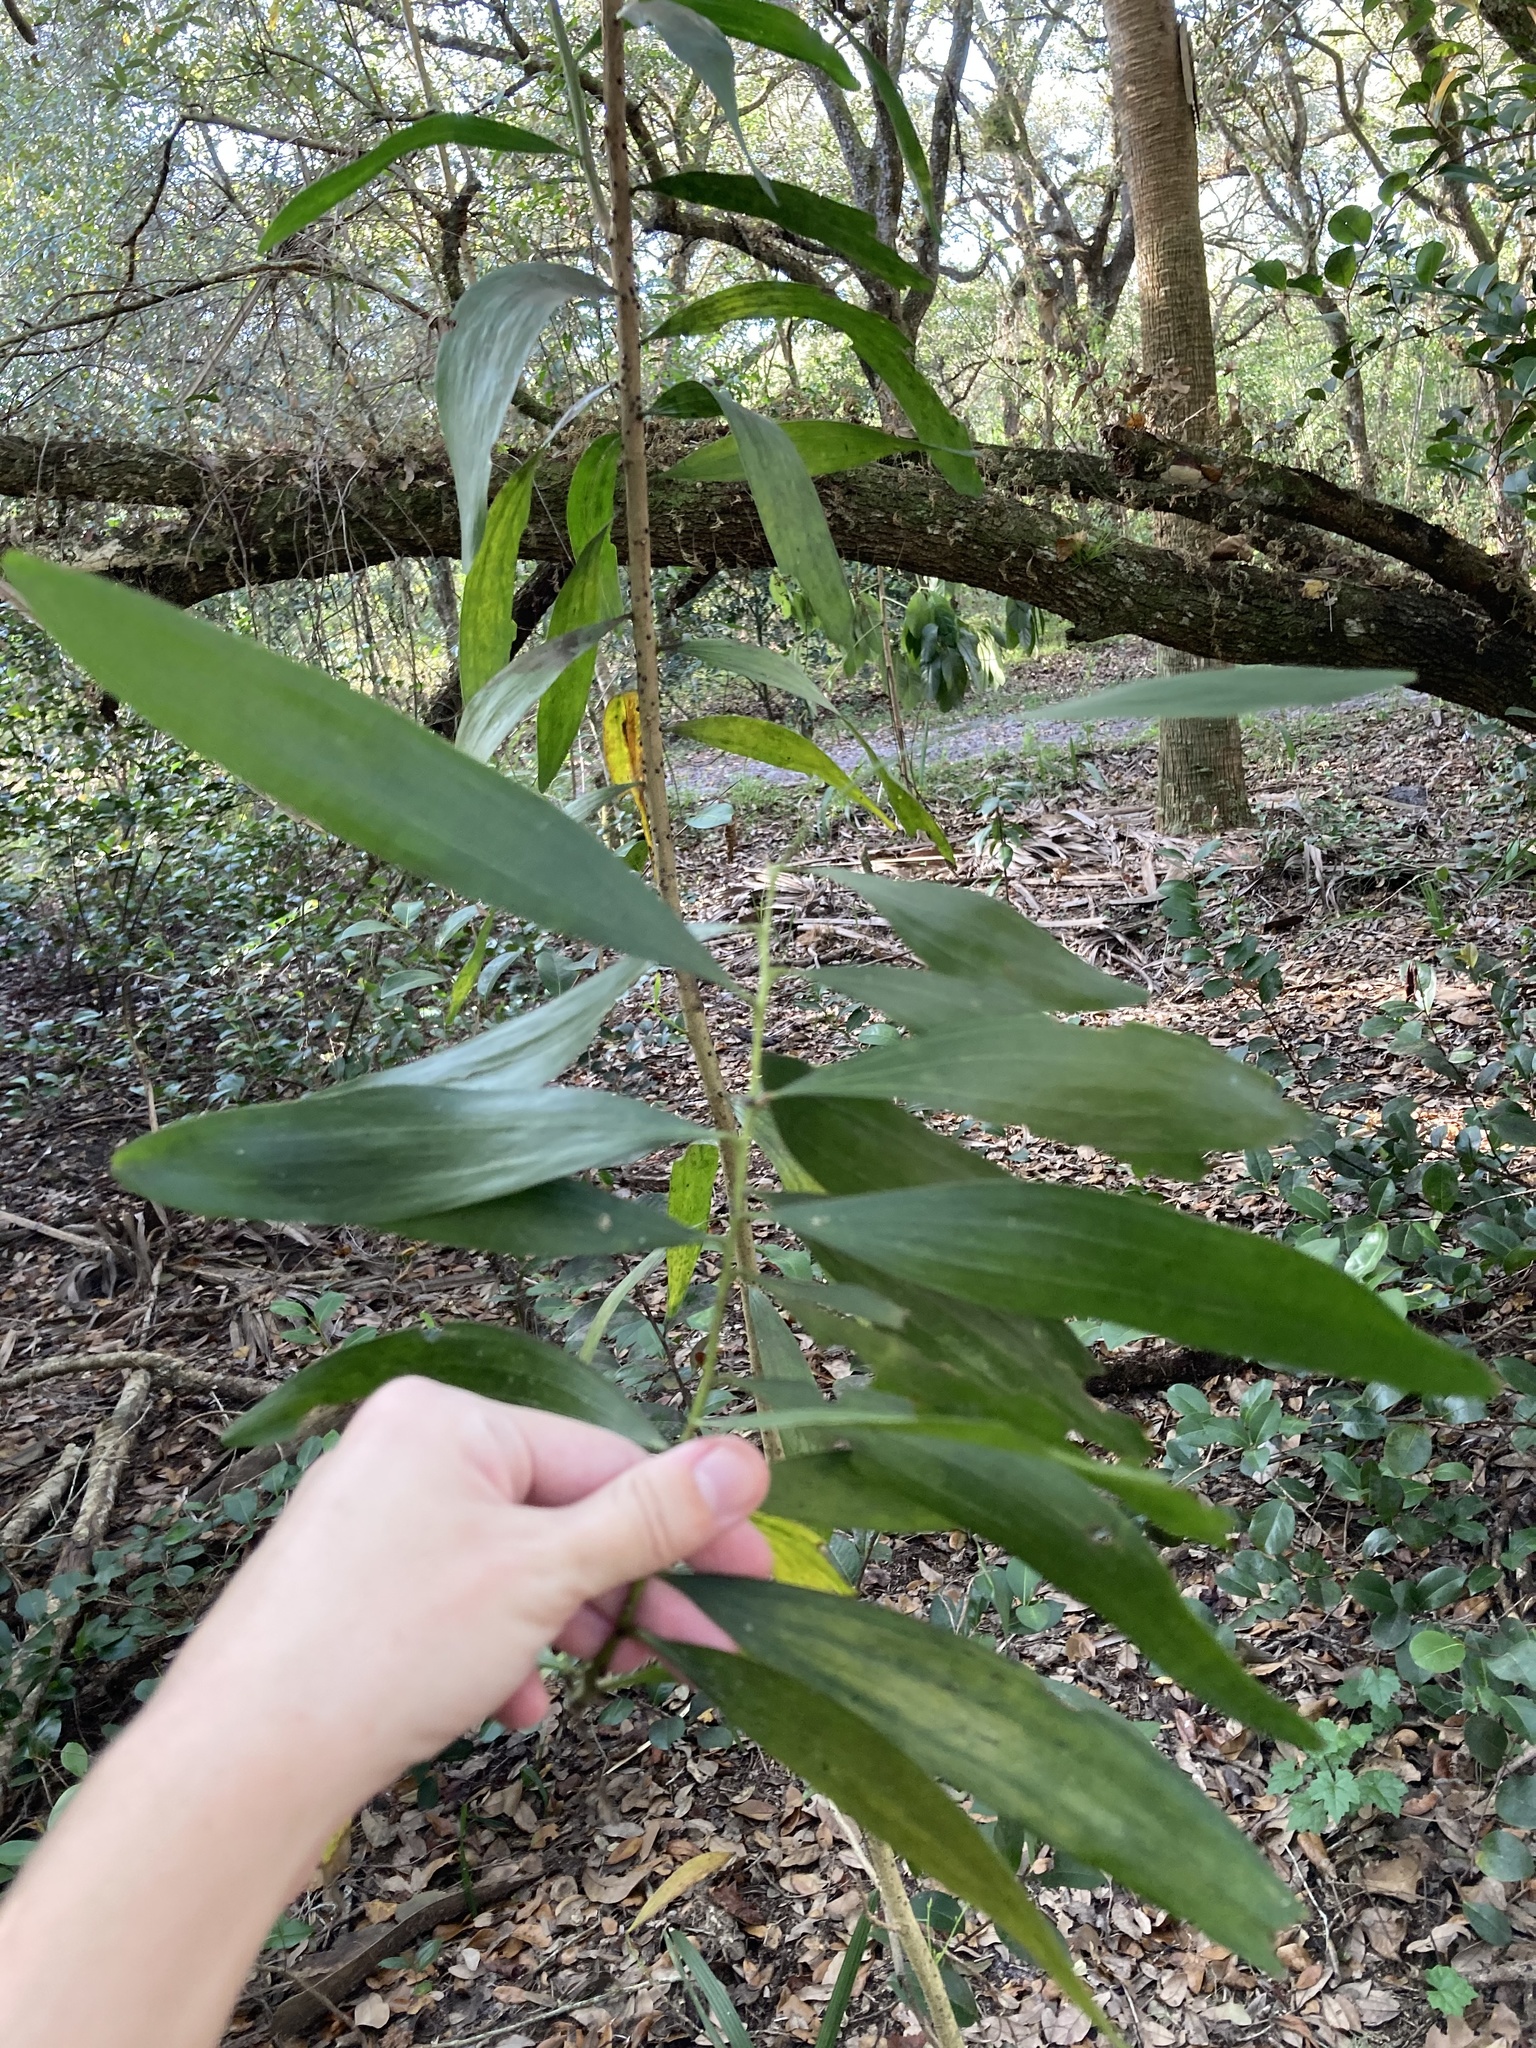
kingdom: Plantae
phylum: Tracheophyta
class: Magnoliopsida
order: Fabales
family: Fabaceae
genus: Acacia
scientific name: Acacia auriculiformis
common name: Earleaf acacia
